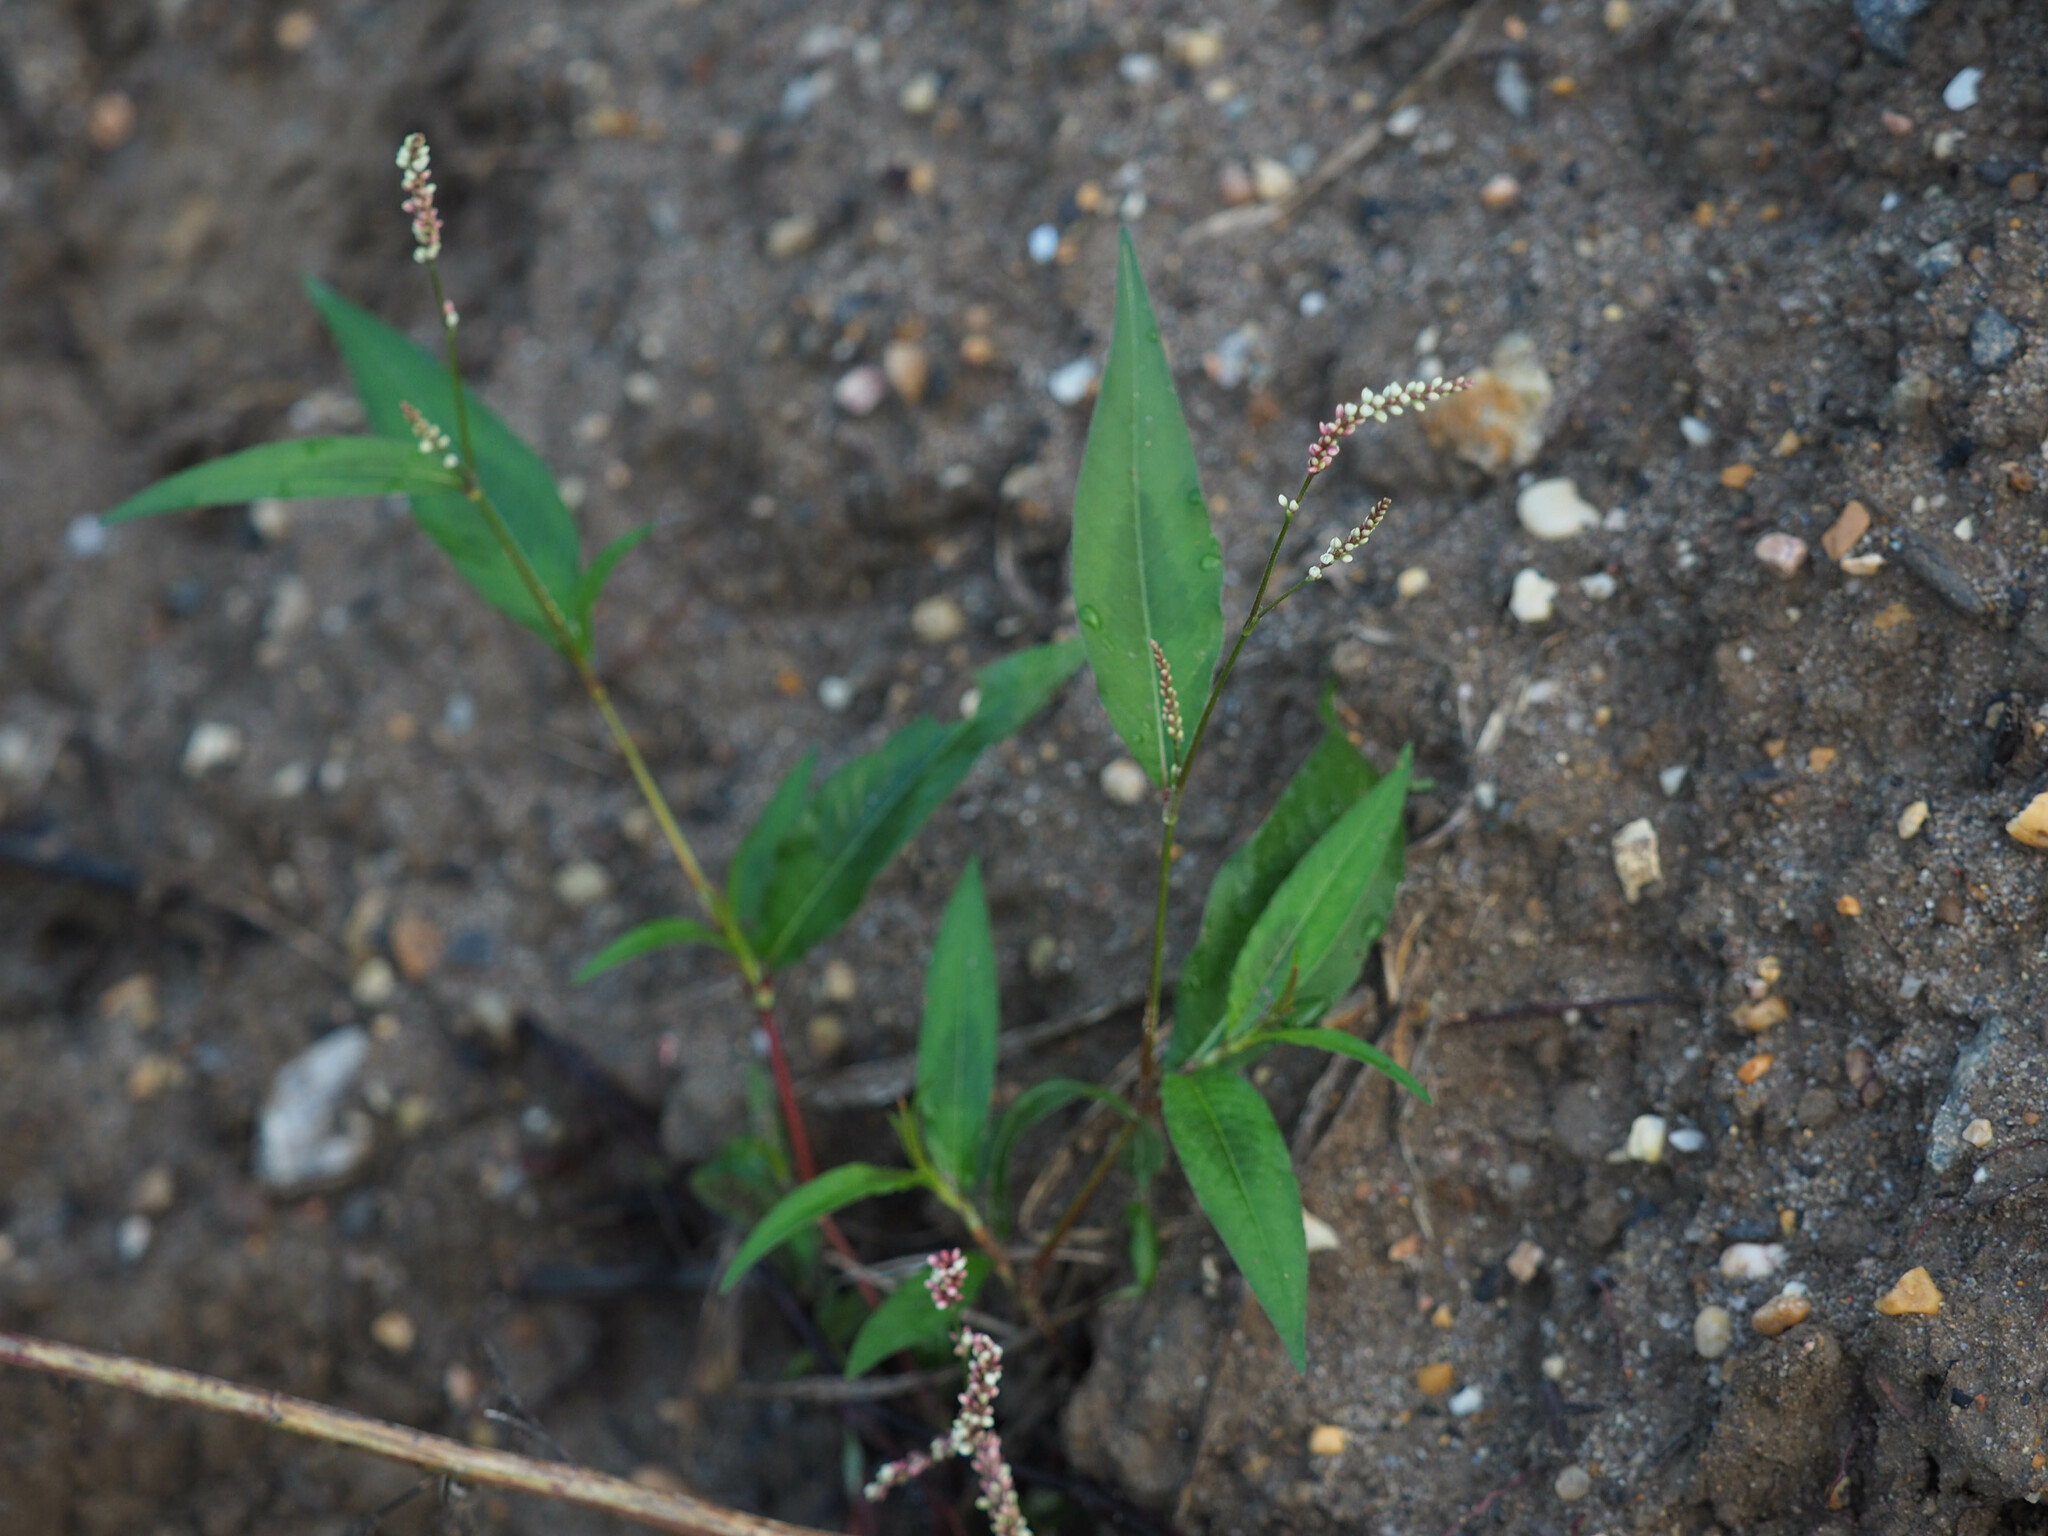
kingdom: Plantae
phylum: Tracheophyta
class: Magnoliopsida
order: Caryophyllales
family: Polygonaceae
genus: Persicaria
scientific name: Persicaria maculosa
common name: Redshank
